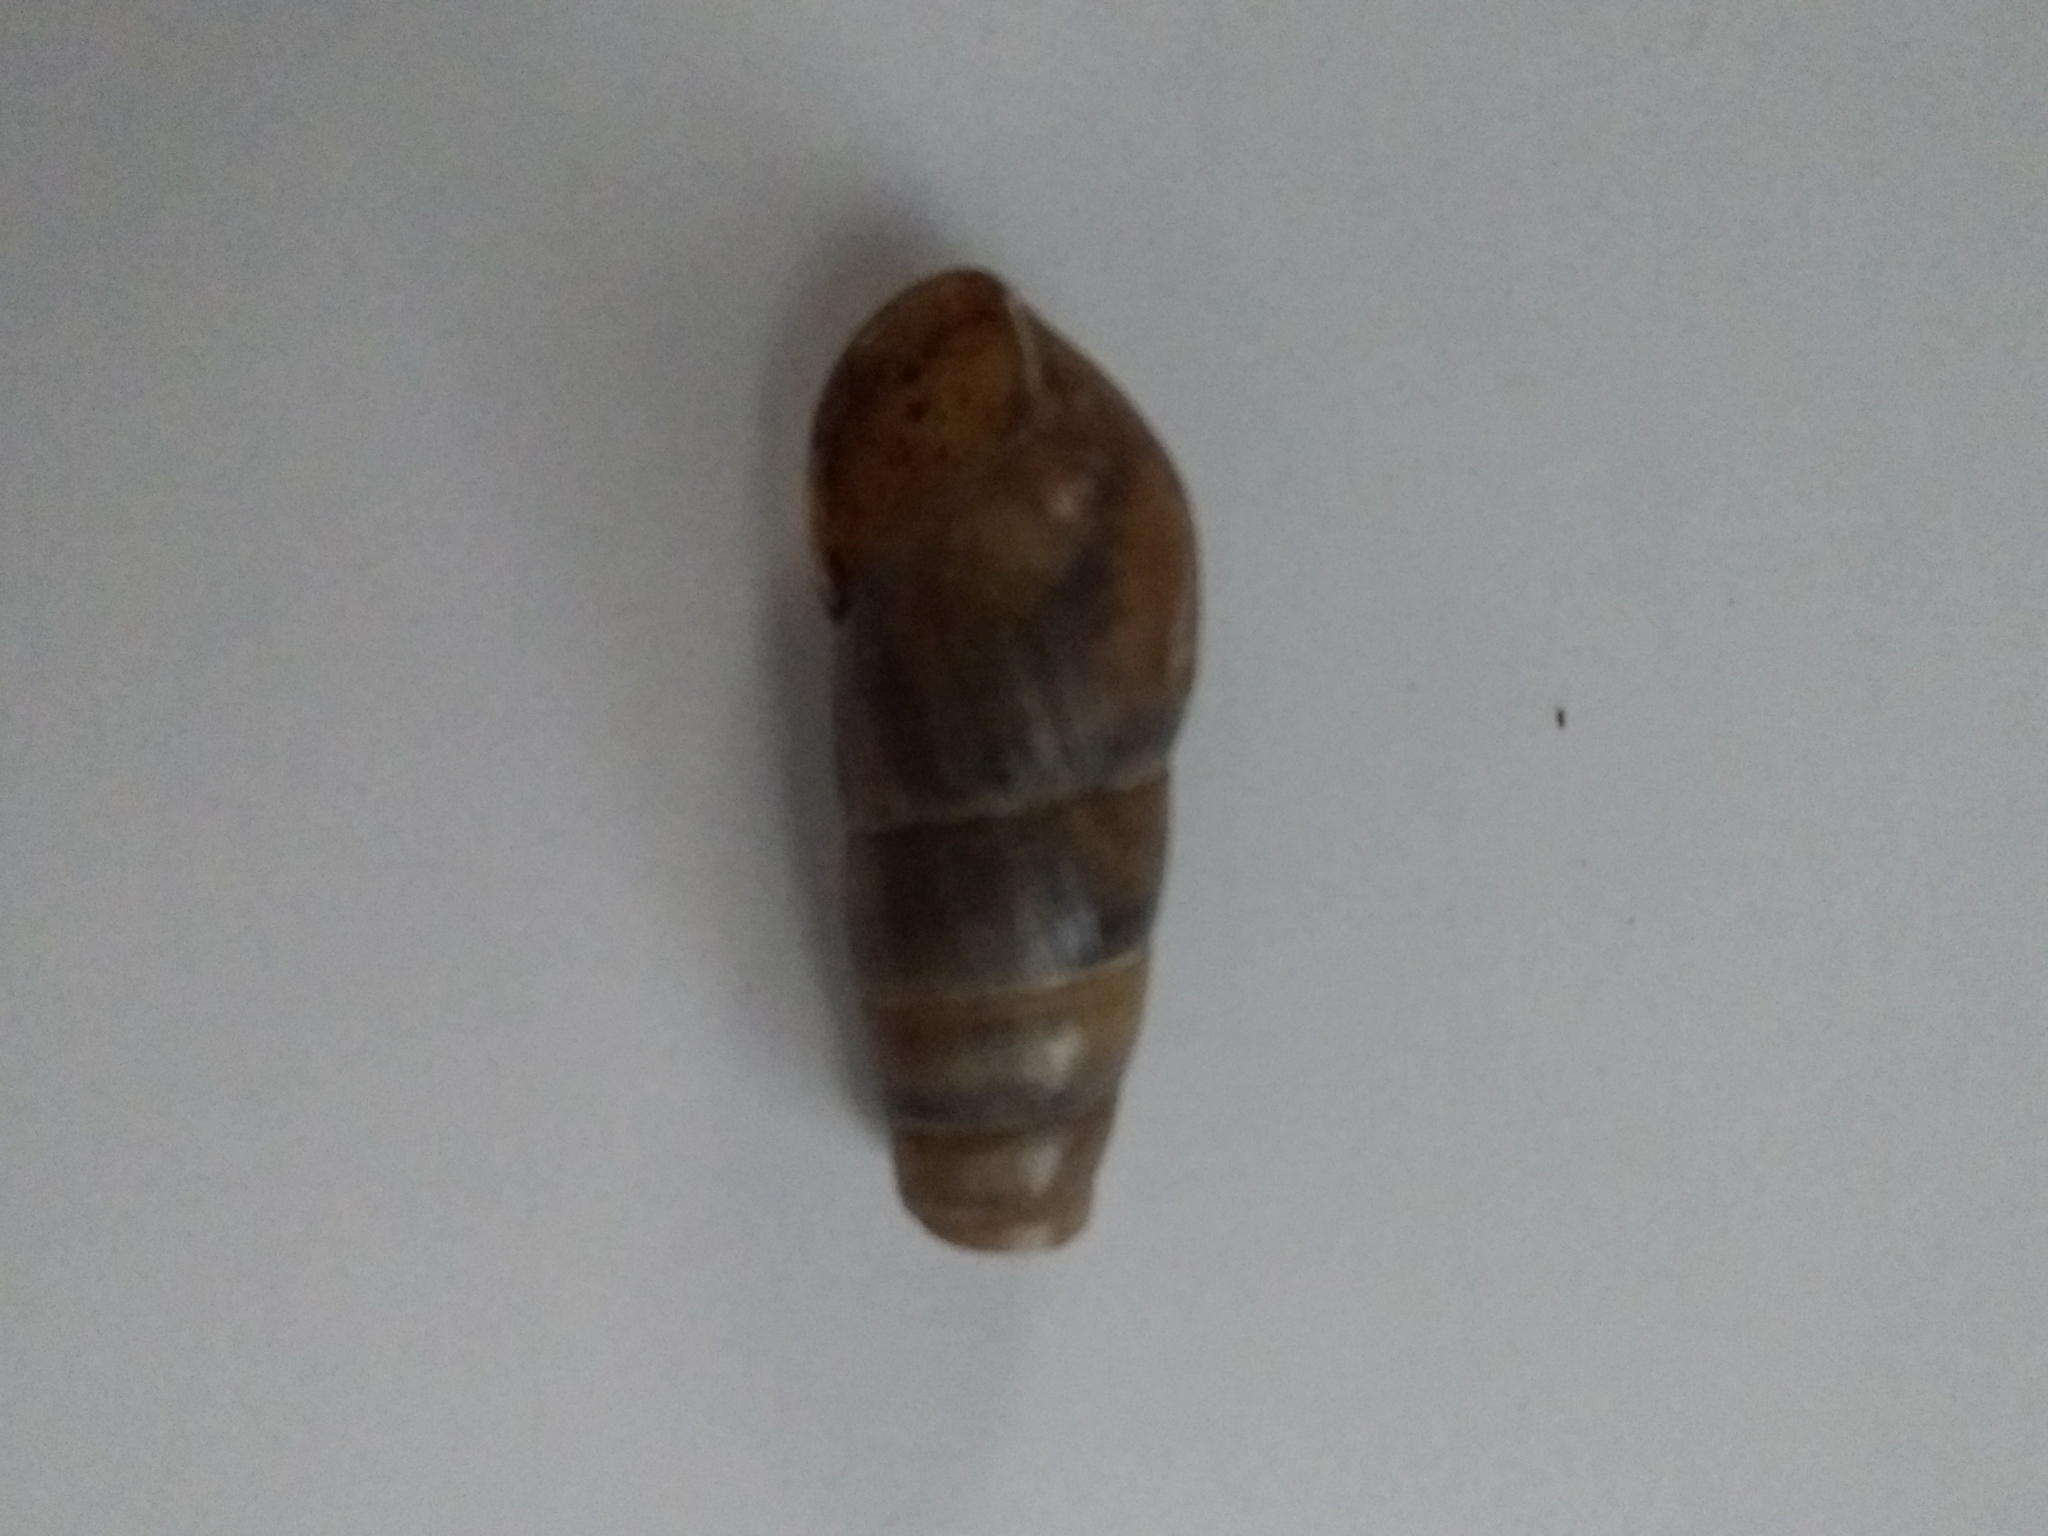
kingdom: Animalia
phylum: Mollusca
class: Gastropoda
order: Stylommatophora
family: Achatinidae
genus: Rumina
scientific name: Rumina decollata
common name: Decollate snail
